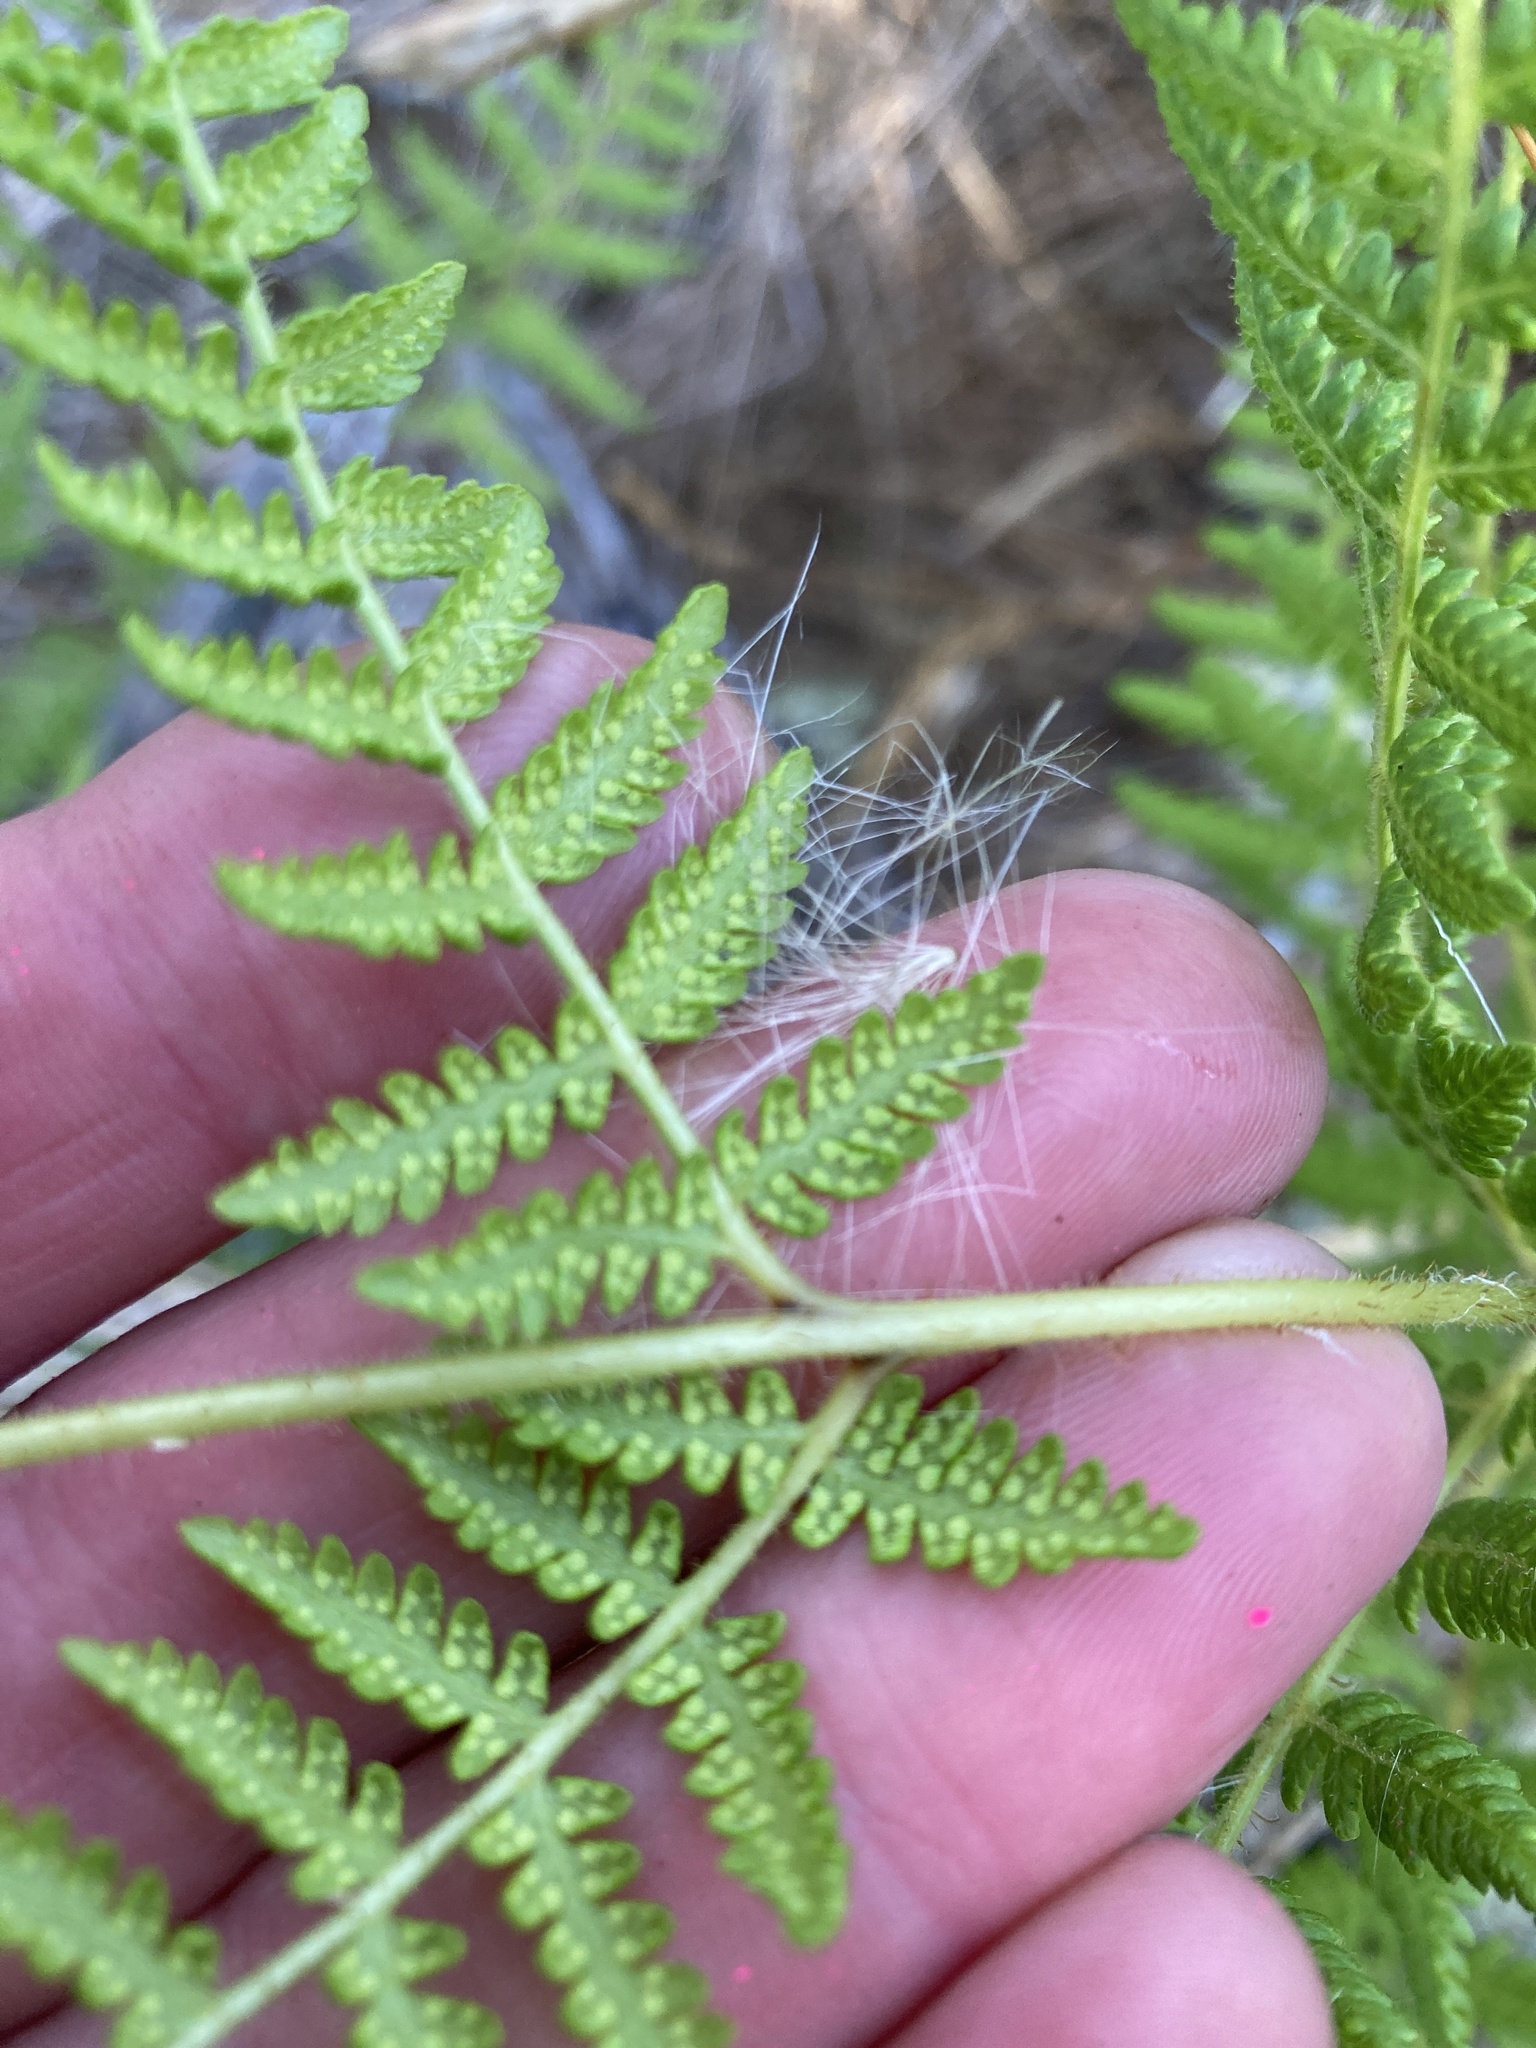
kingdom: Plantae
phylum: Tracheophyta
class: Polypodiopsida
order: Polypodiales
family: Dennstaedtiaceae
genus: Hypolepis
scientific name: Hypolepis ambigua
